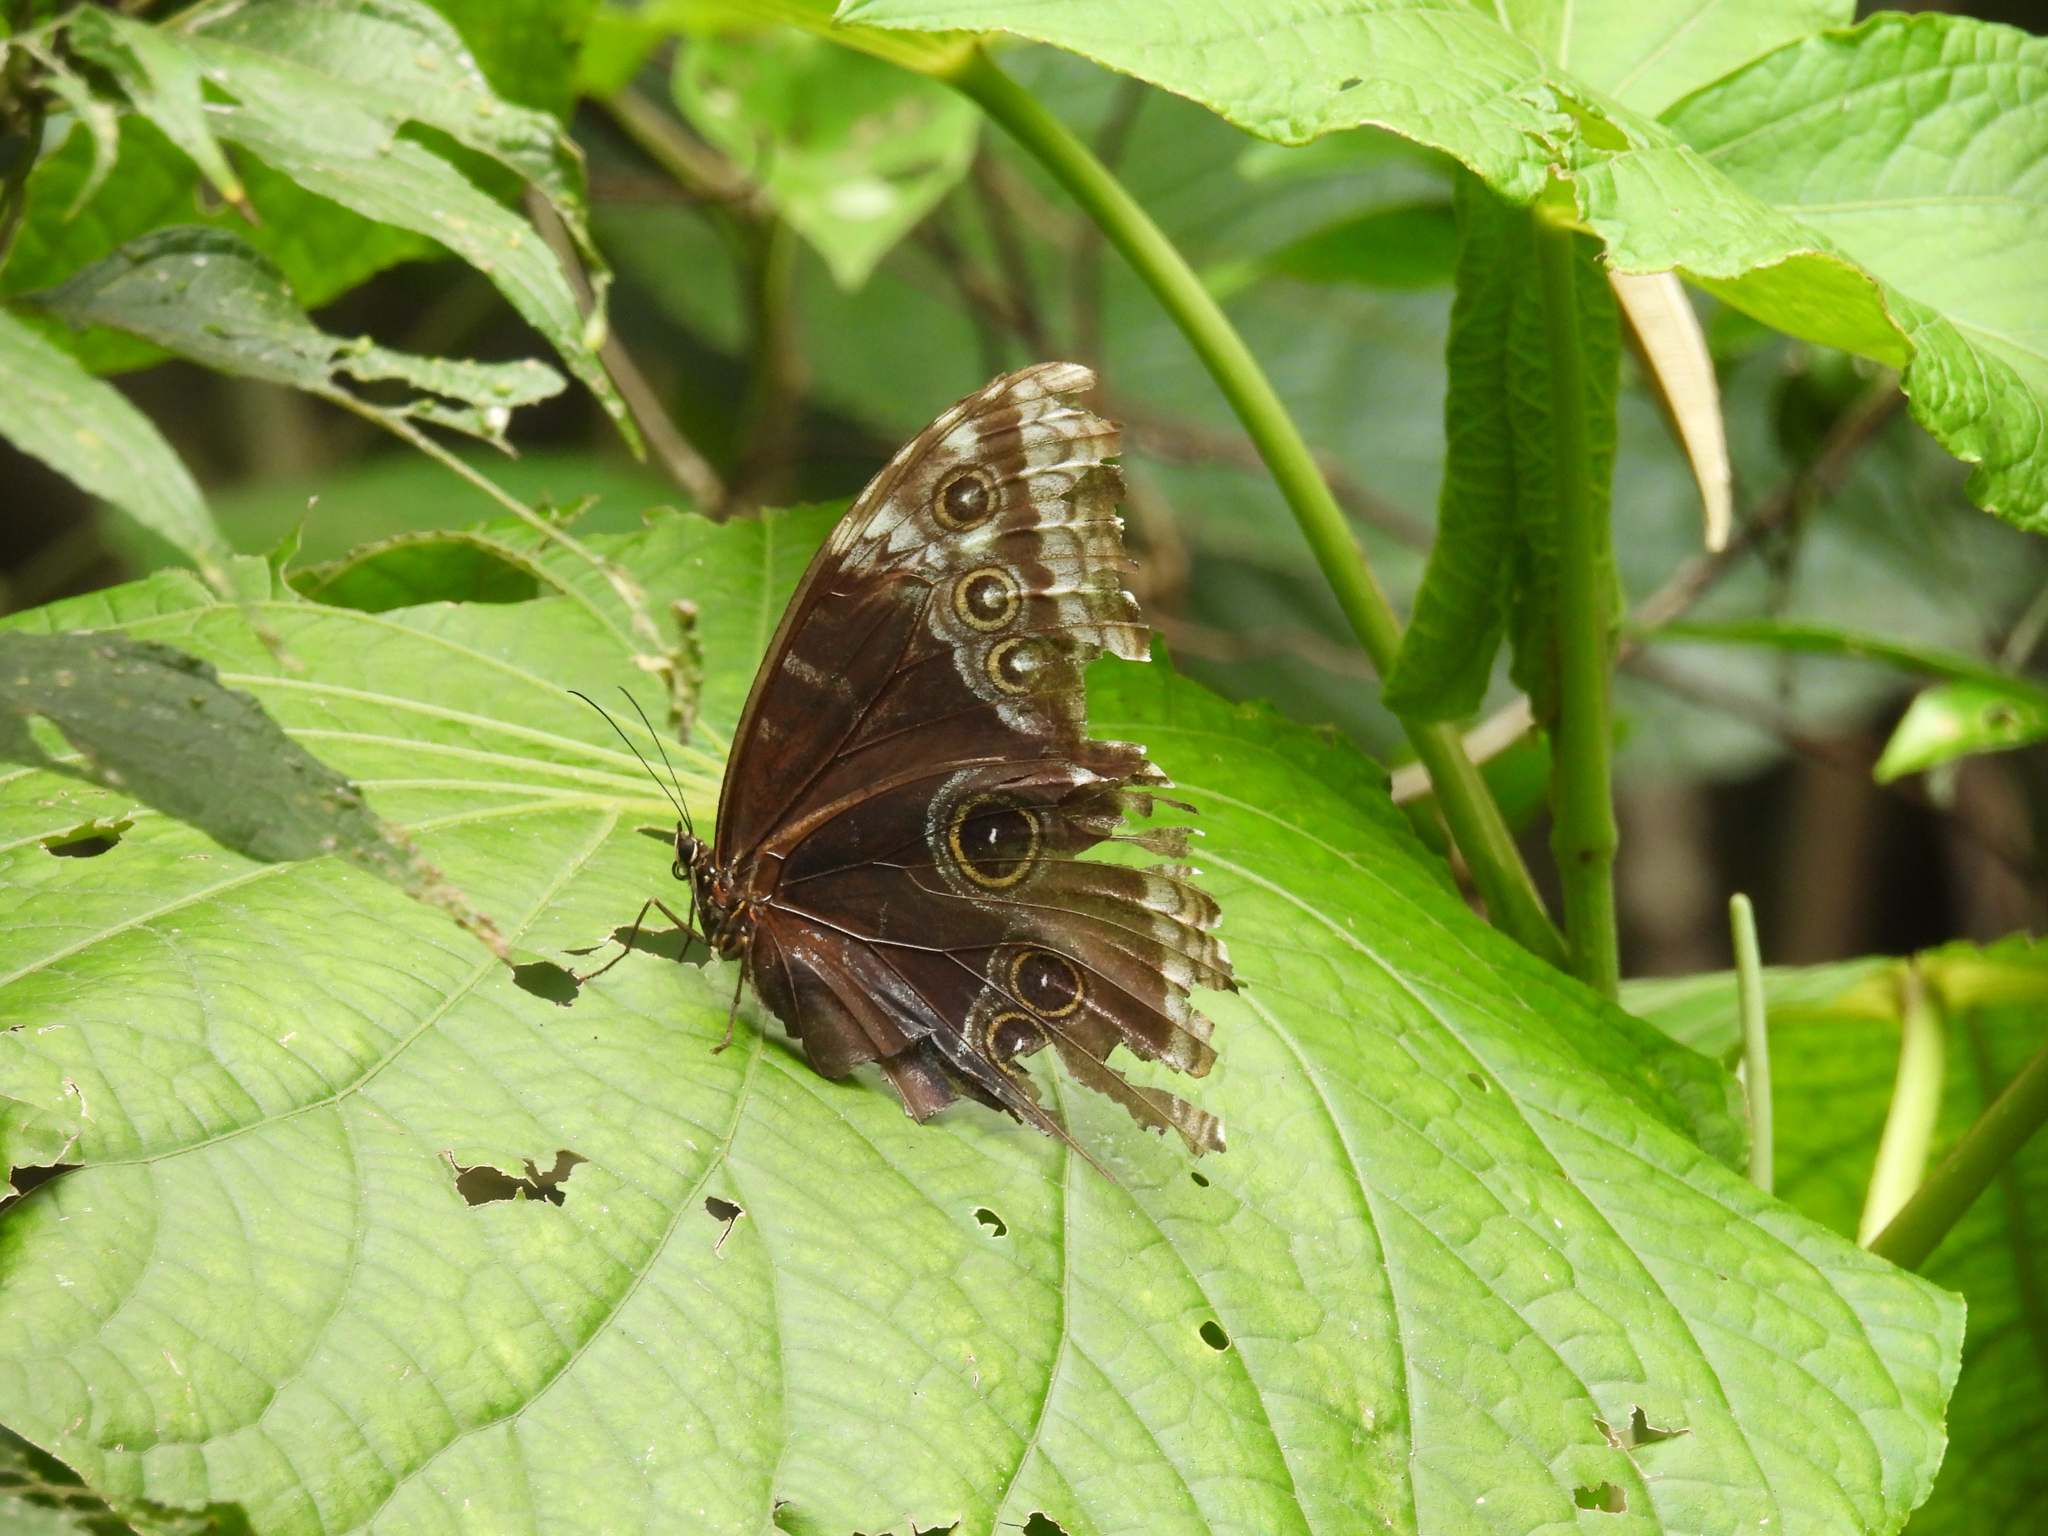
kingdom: Animalia
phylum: Arthropoda
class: Insecta
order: Lepidoptera
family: Nymphalidae
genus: Morpho
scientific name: Morpho helenor
